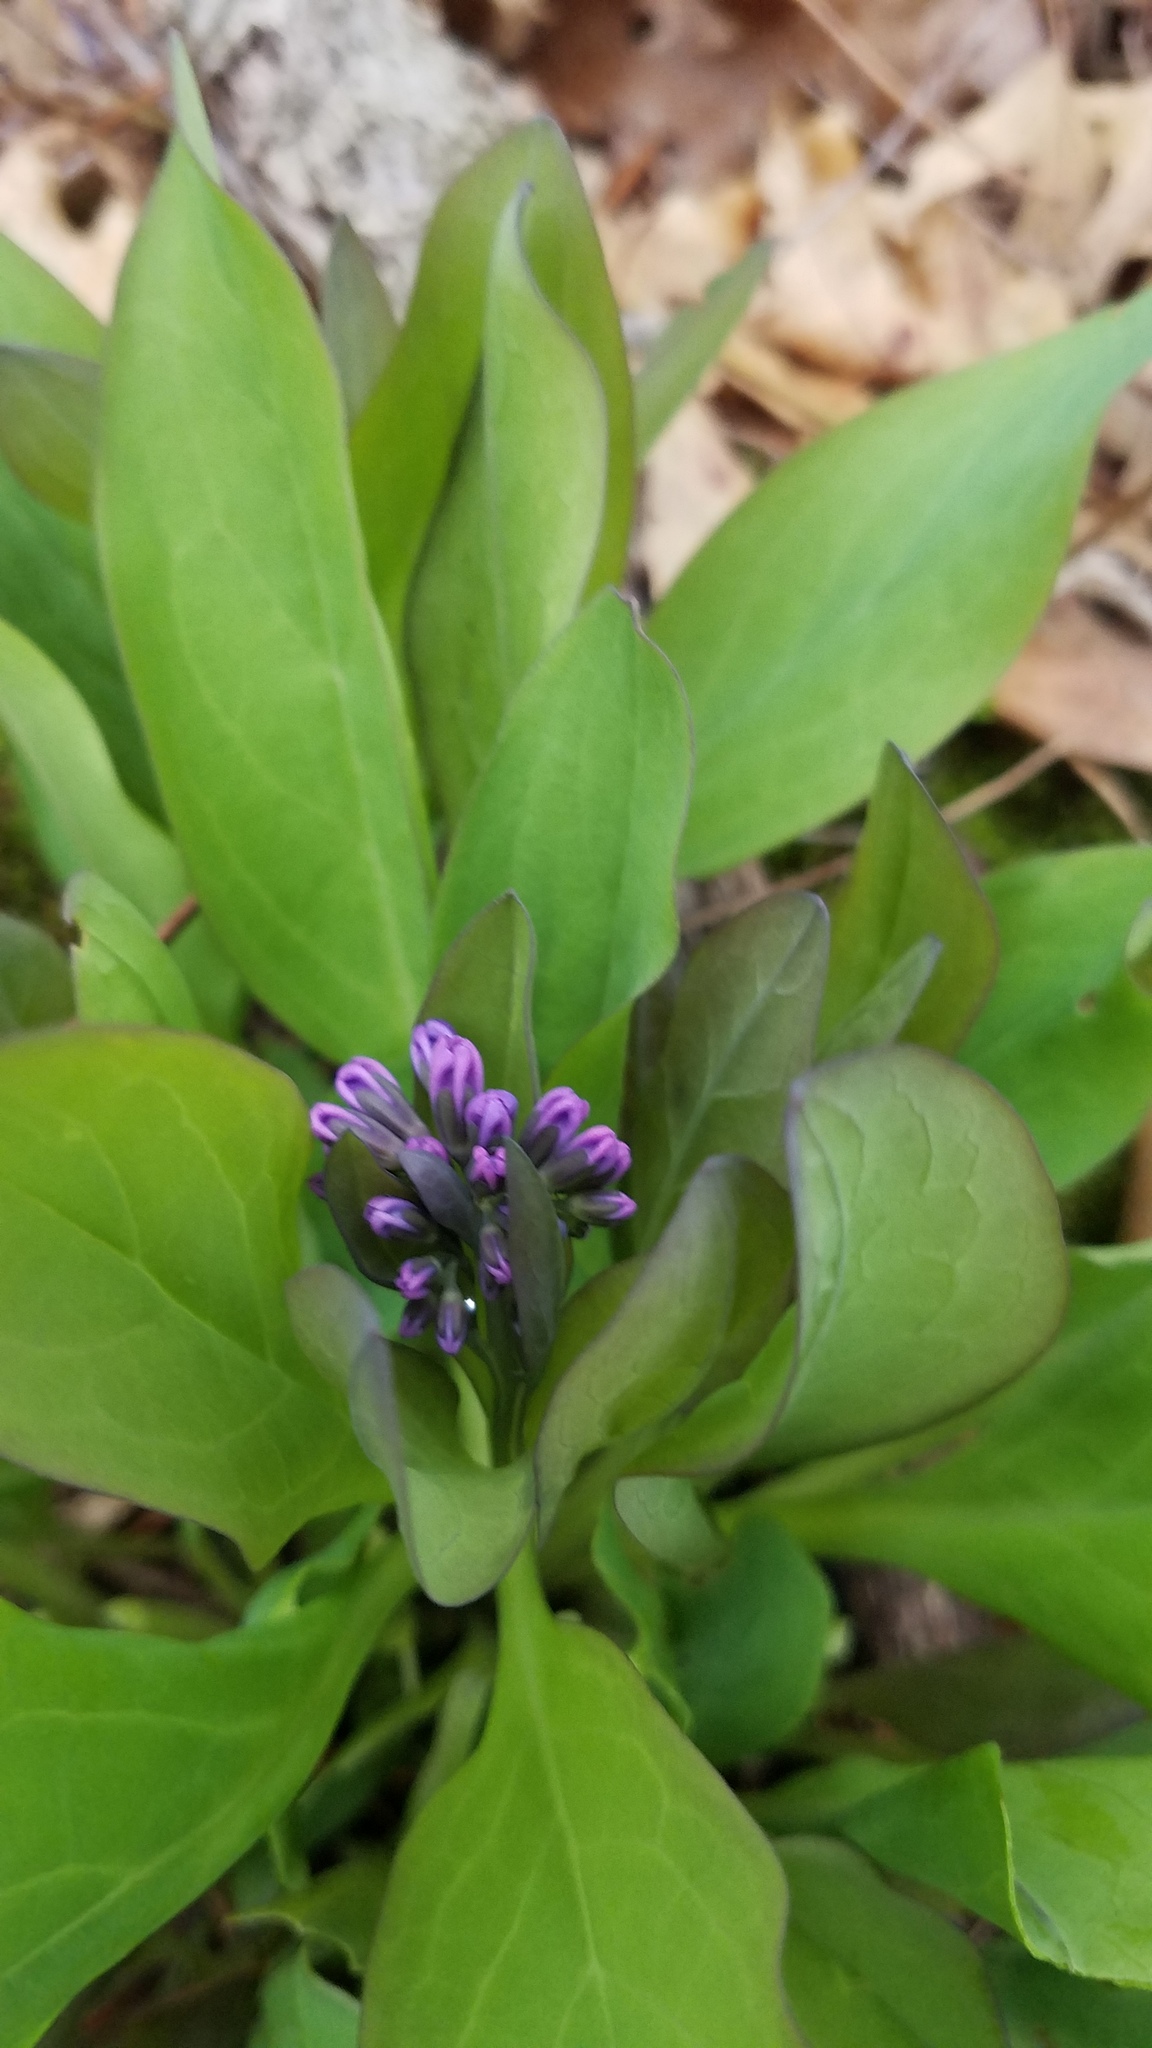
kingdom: Plantae
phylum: Tracheophyta
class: Magnoliopsida
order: Boraginales
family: Boraginaceae
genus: Mertensia
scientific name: Mertensia virginica
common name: Virginia bluebells
